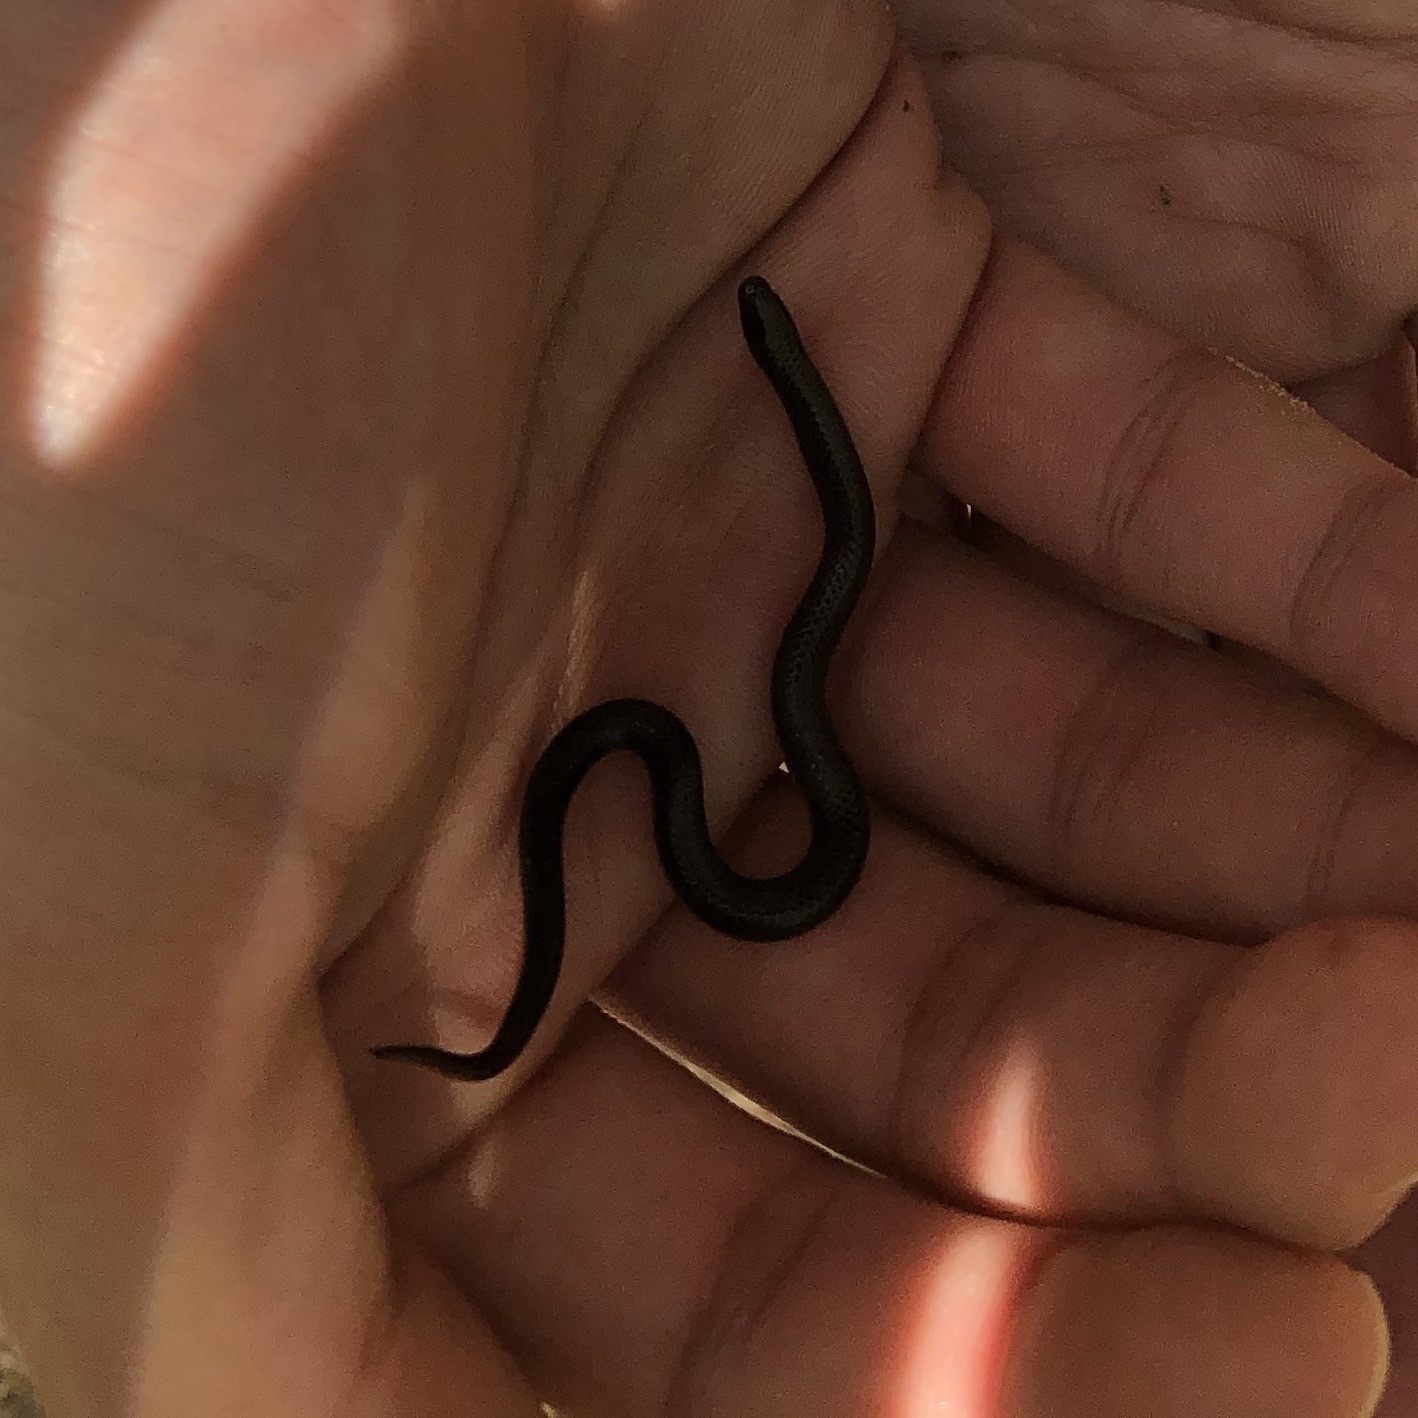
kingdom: Animalia
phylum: Chordata
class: Squamata
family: Colubridae
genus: Carphophis
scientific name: Carphophis amoenus
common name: Eastern worm snake
